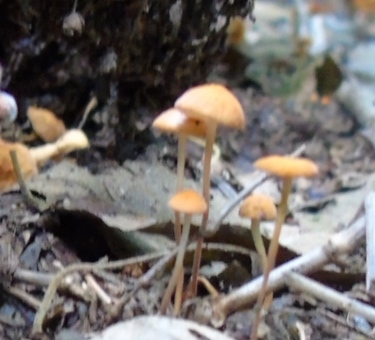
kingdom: Fungi
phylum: Basidiomycota
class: Agaricomycetes
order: Agaricales
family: Marasmiaceae
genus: Marasmius
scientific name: Marasmius
